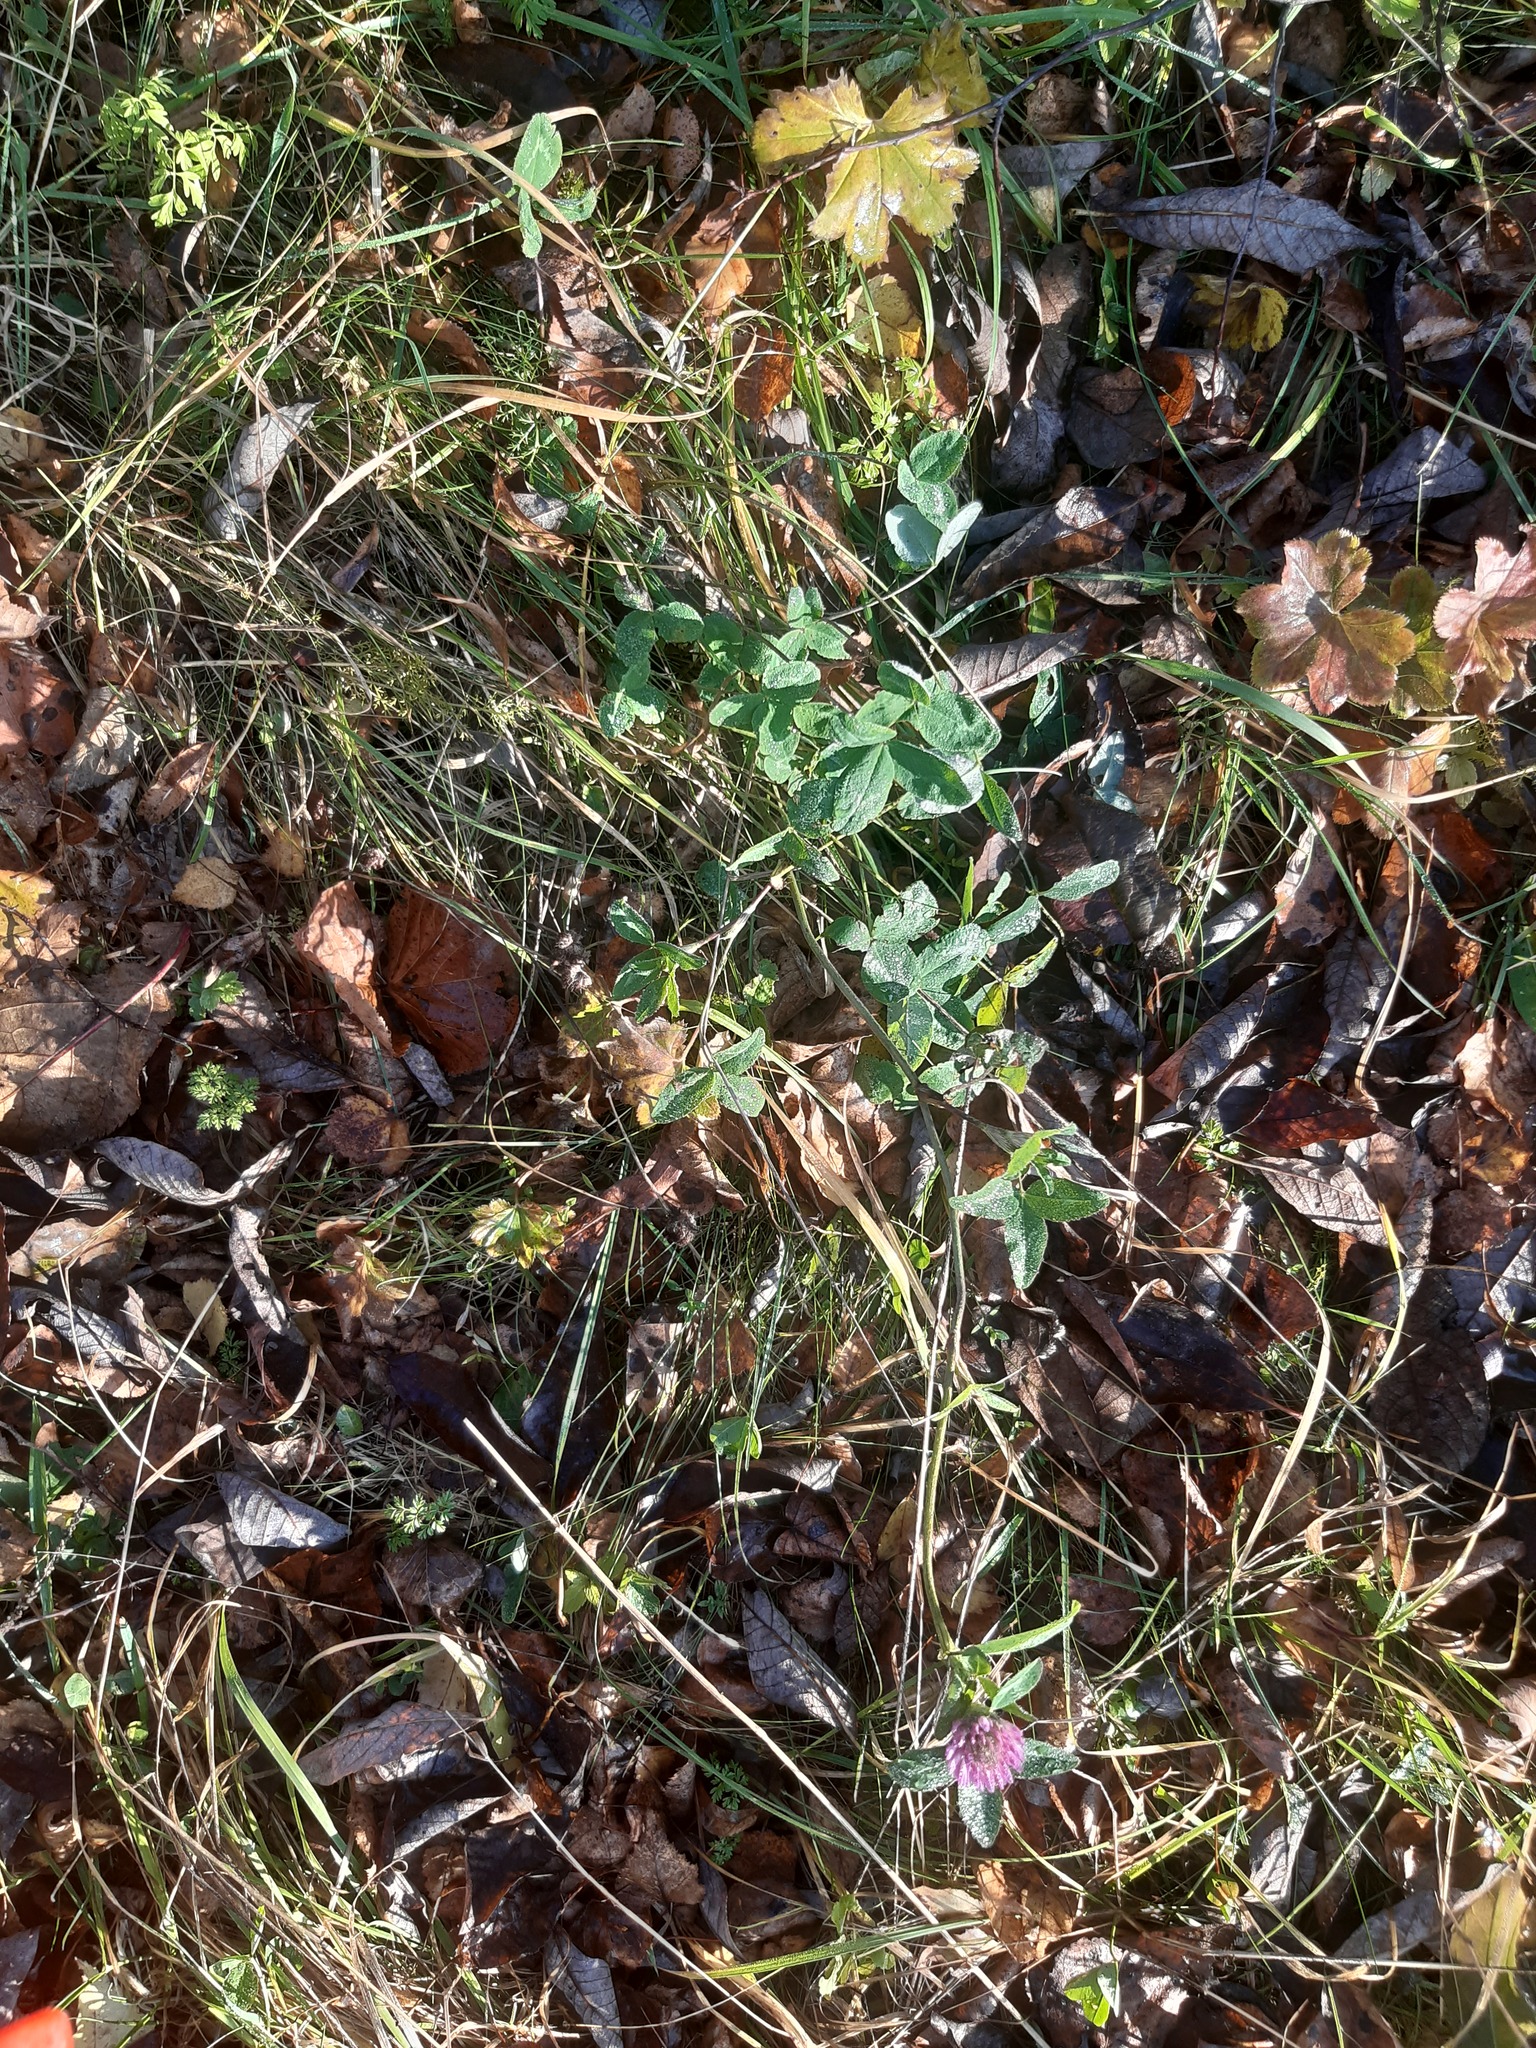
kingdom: Plantae
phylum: Tracheophyta
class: Magnoliopsida
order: Fabales
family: Fabaceae
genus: Trifolium
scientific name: Trifolium pratense
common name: Red clover
